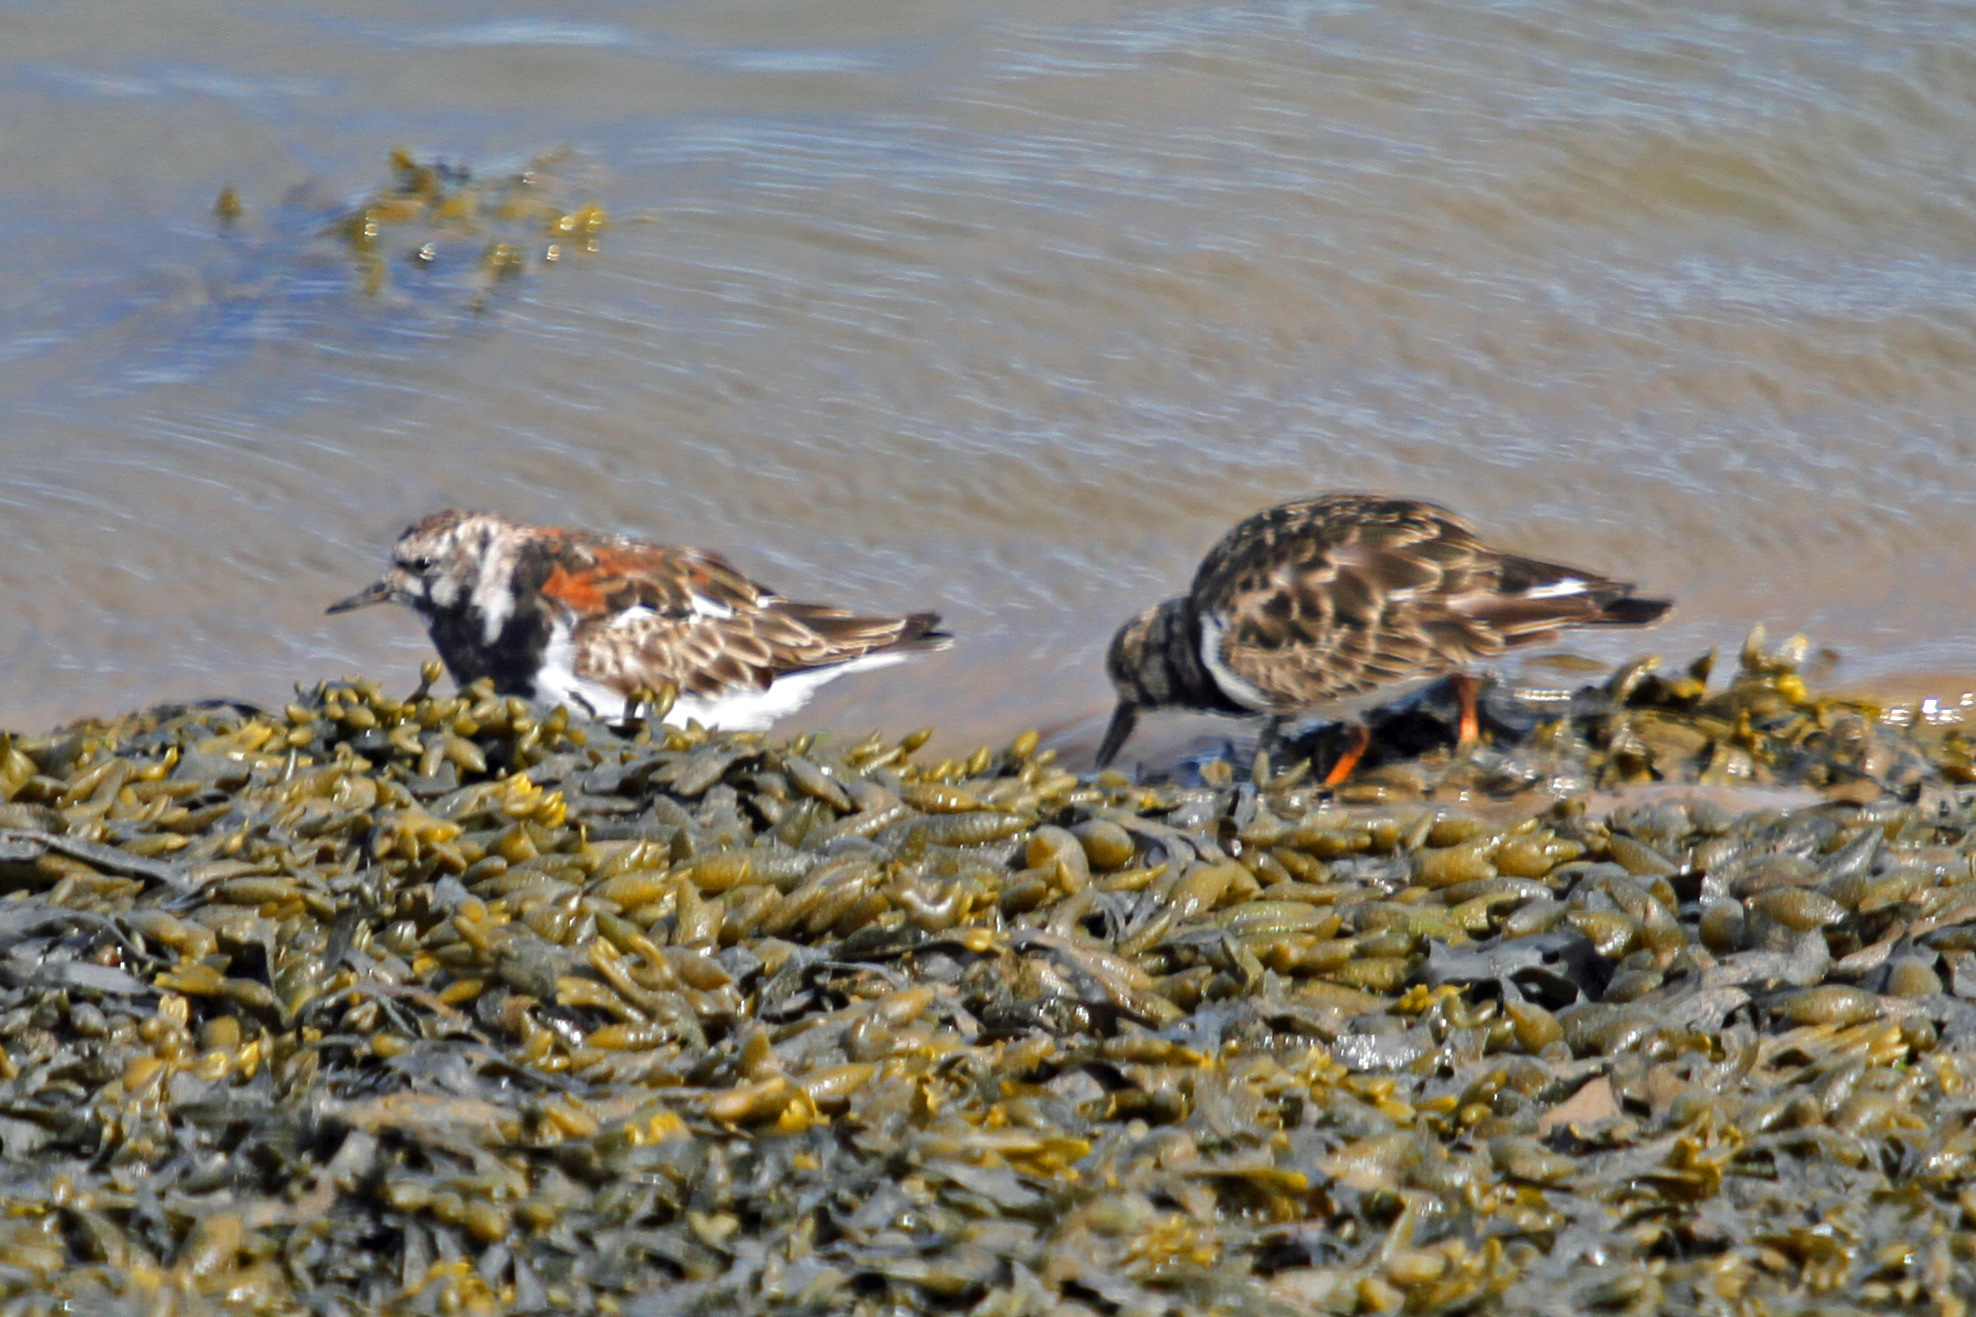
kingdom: Animalia
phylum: Chordata
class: Aves
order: Charadriiformes
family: Scolopacidae
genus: Arenaria
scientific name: Arenaria interpres
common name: Ruddy turnstone
